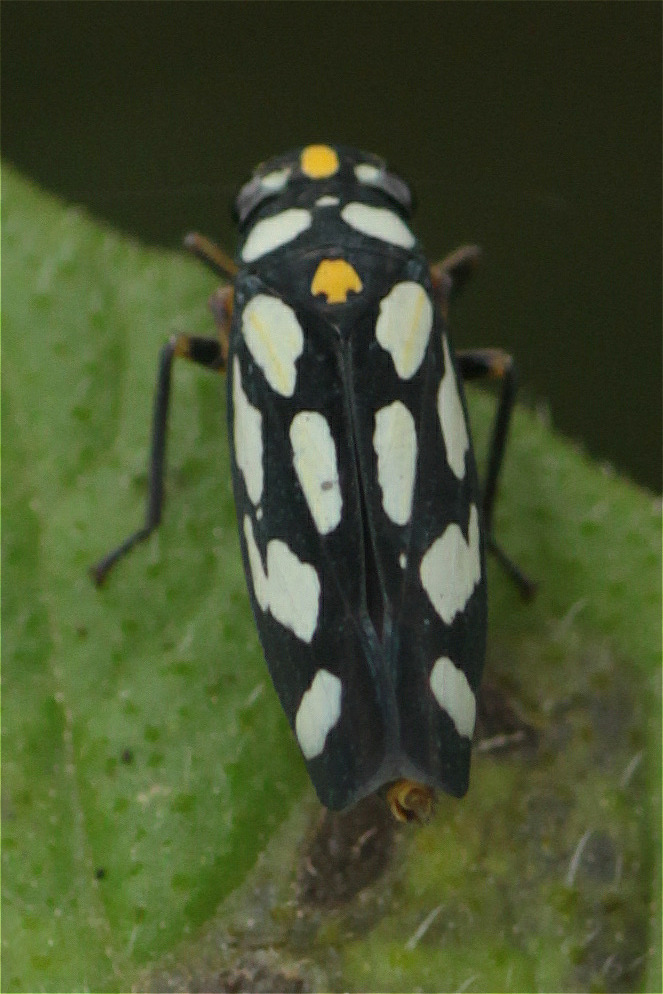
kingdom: Animalia
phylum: Arthropoda
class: Insecta
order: Hemiptera
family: Cicadellidae
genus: Stehlikiana
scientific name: Stehlikiana crassa
